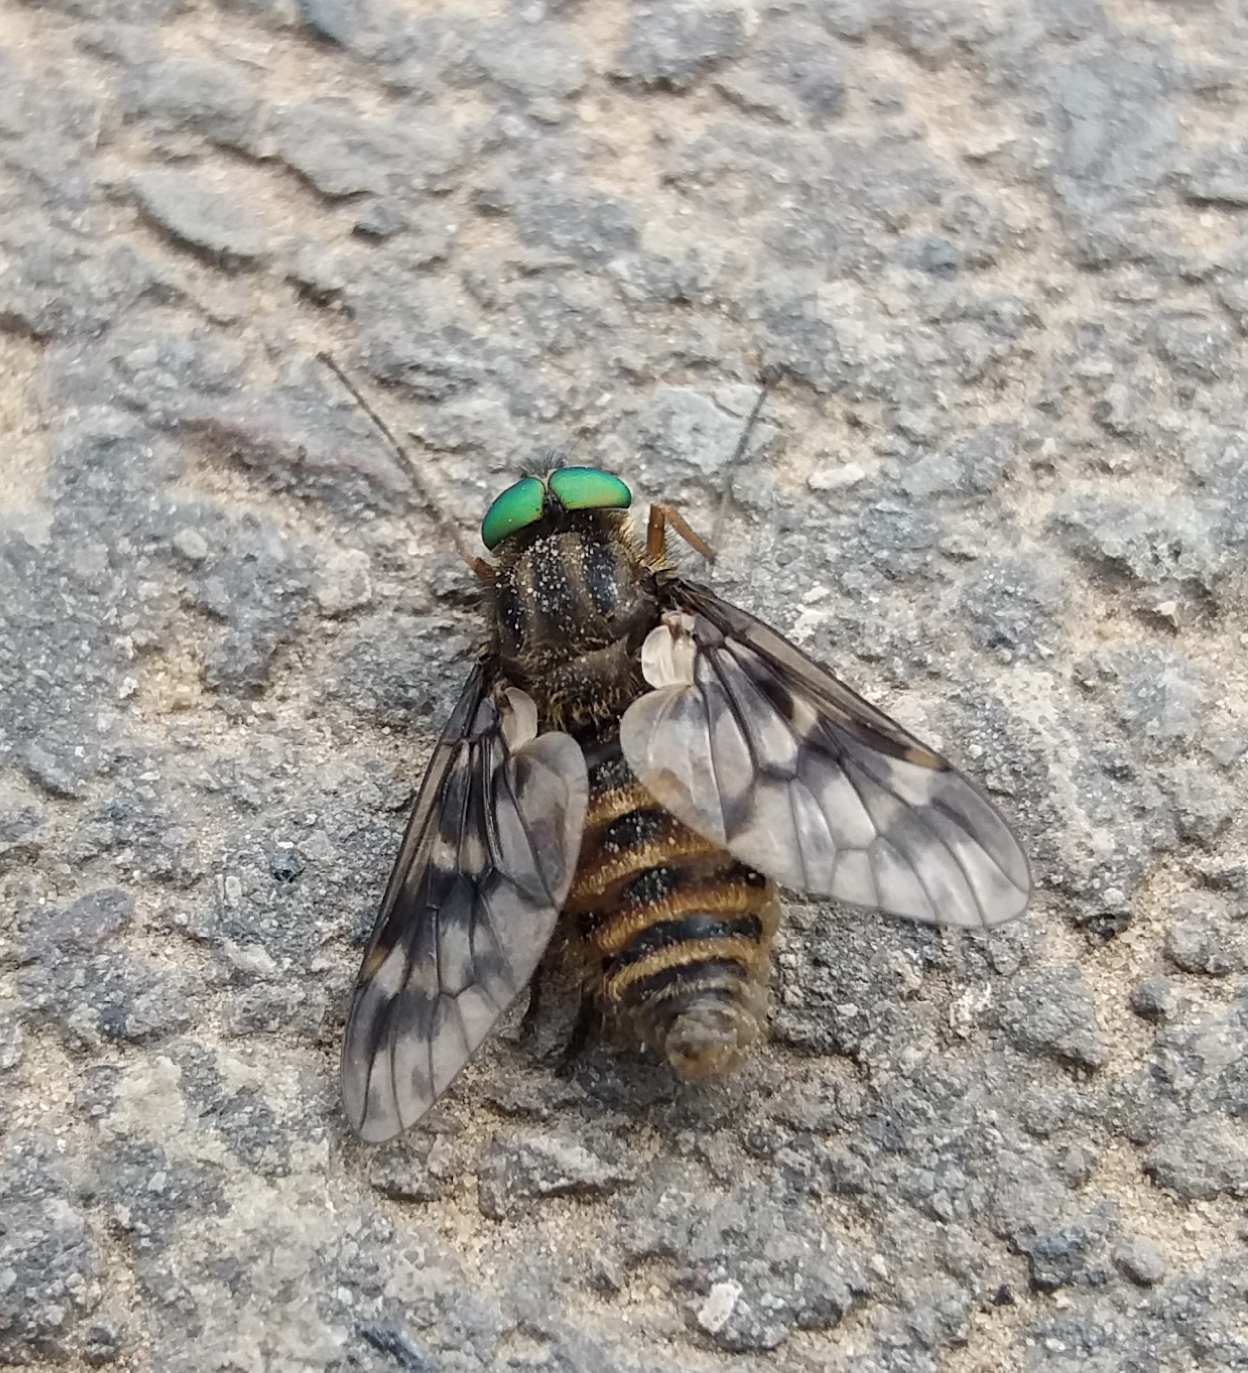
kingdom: Animalia
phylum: Arthropoda
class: Insecta
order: Diptera
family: Athericidae
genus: Atherix
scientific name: Atherix ibis
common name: Yellow-legged water-snipefly
